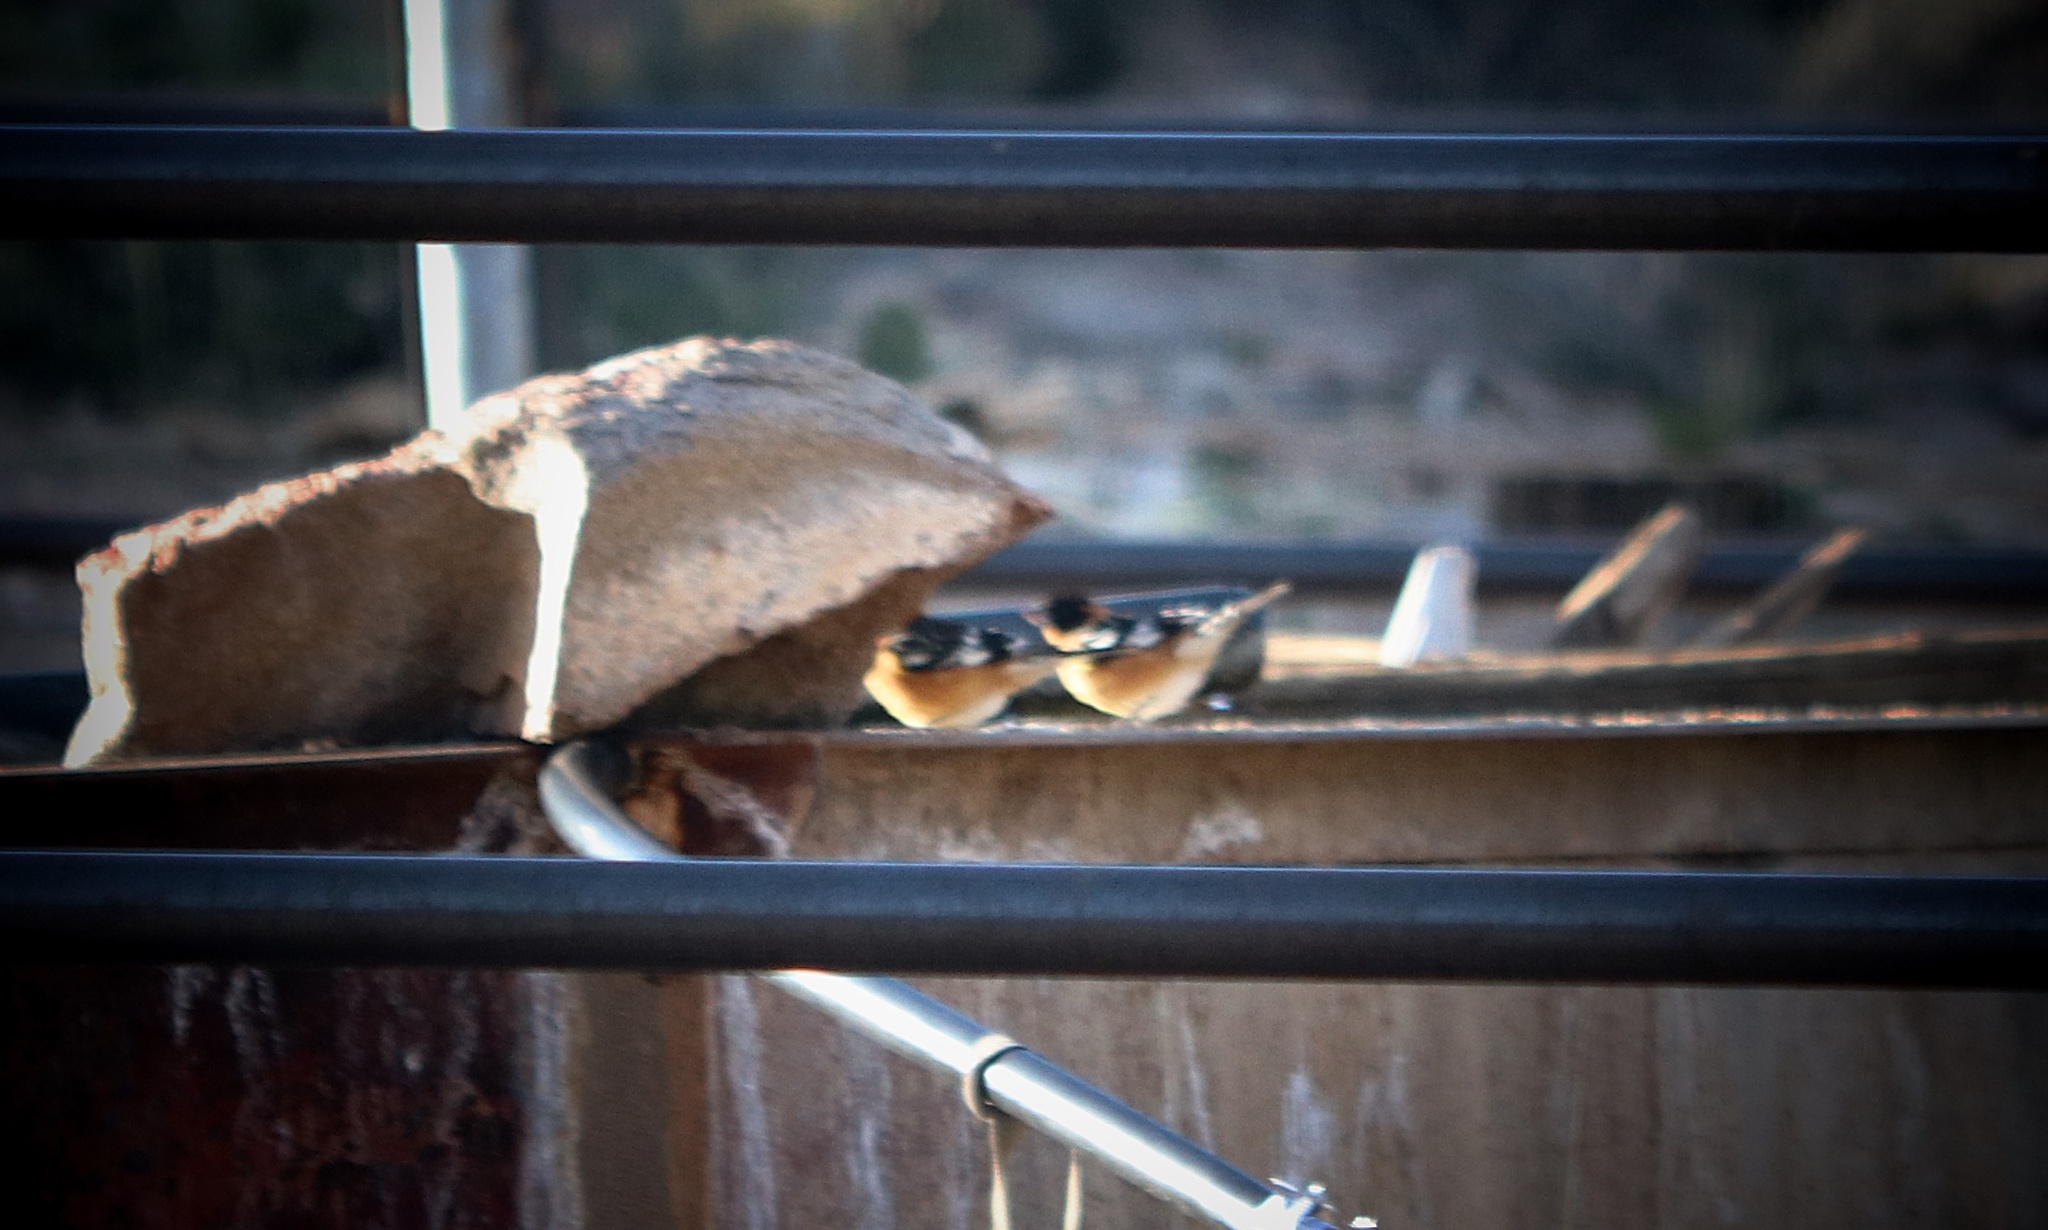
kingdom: Animalia
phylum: Chordata
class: Aves
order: Passeriformes
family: Cardinalidae
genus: Pheucticus
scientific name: Pheucticus melanocephalus
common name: Black-headed grosbeak
